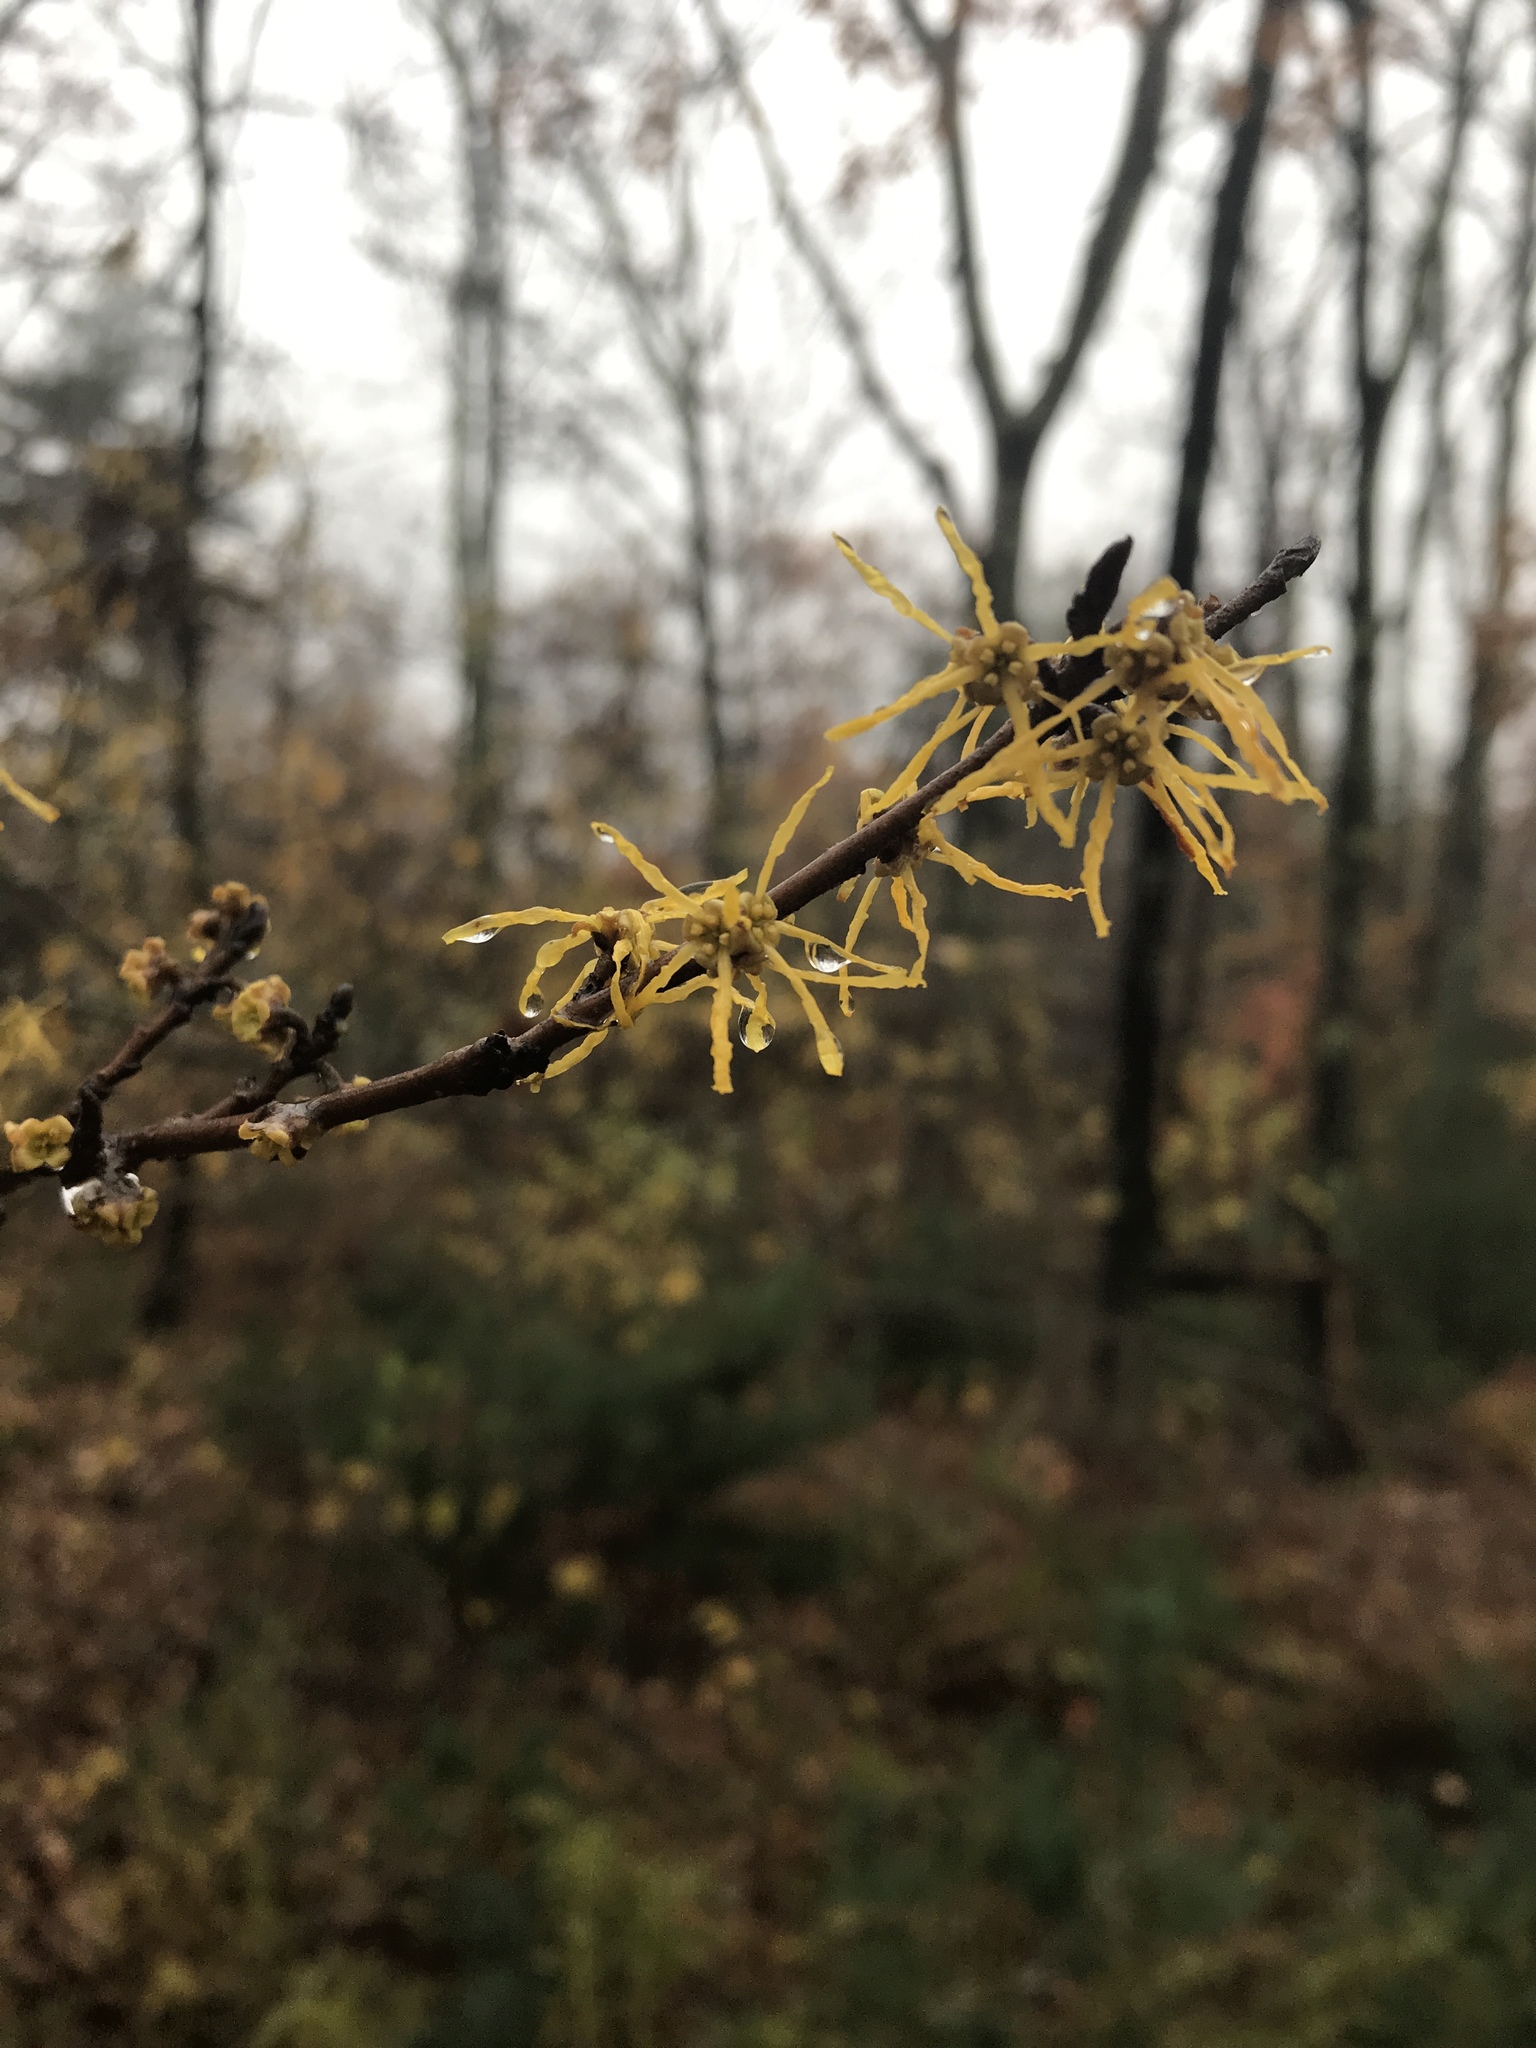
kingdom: Plantae
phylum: Tracheophyta
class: Magnoliopsida
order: Saxifragales
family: Hamamelidaceae
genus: Hamamelis
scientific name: Hamamelis virginiana
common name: Witch-hazel
